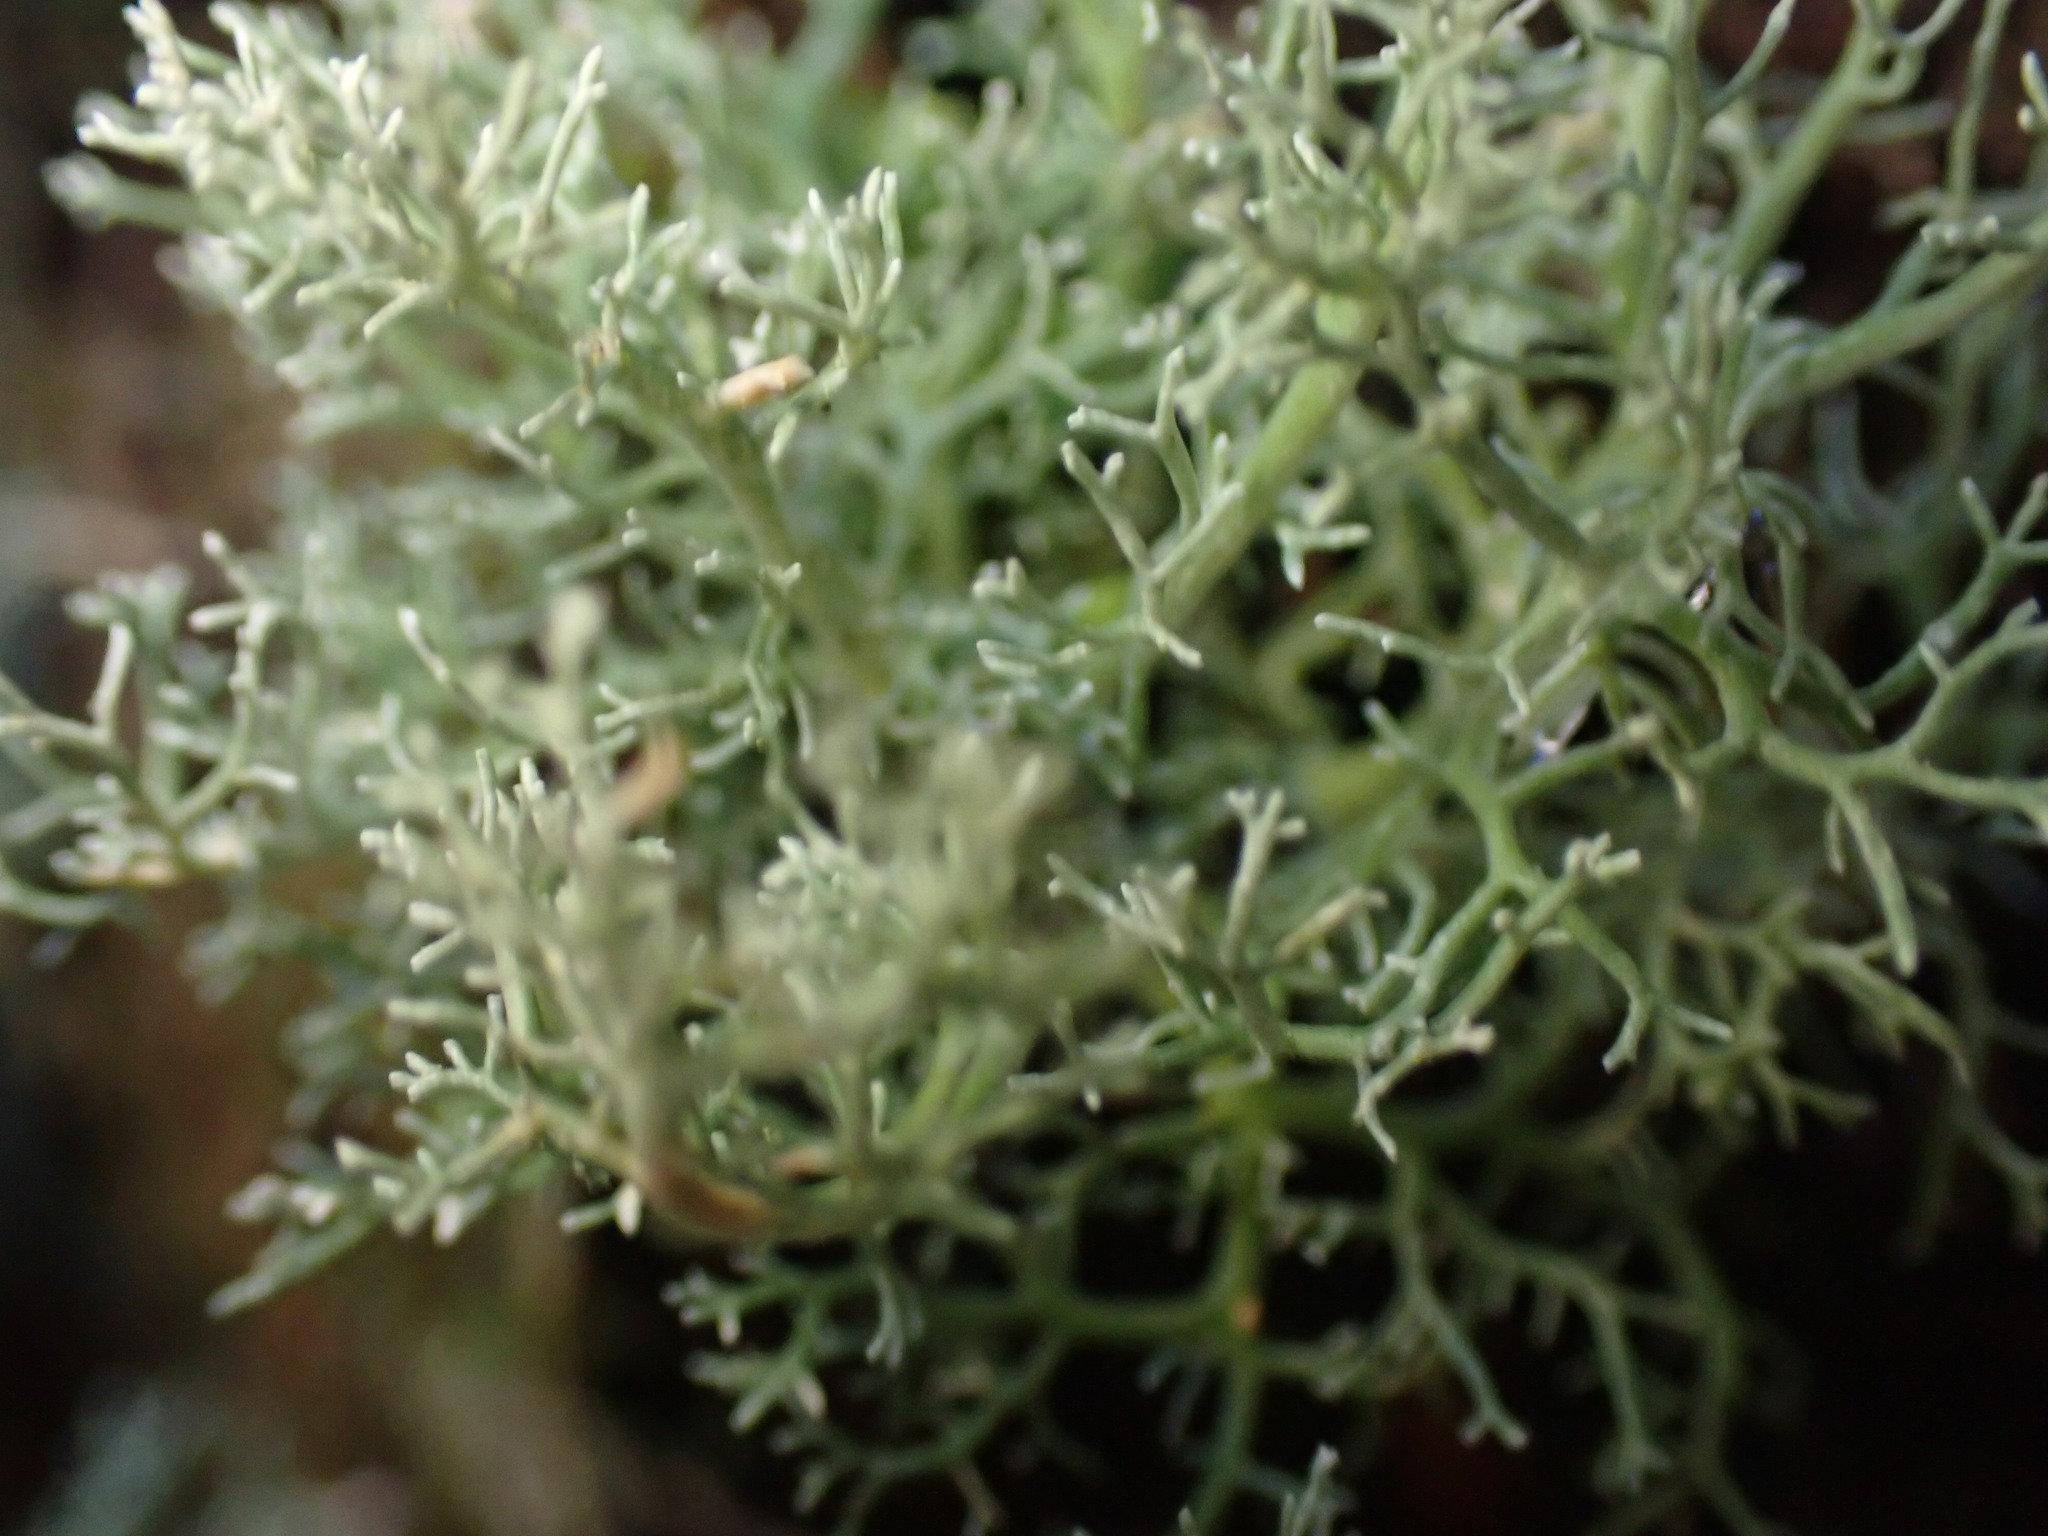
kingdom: Fungi
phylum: Ascomycota
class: Lecanoromycetes
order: Lecanorales
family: Sphaerophoraceae
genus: Sphaerophorus
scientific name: Sphaerophorus globosus
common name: Globe ball lichen
